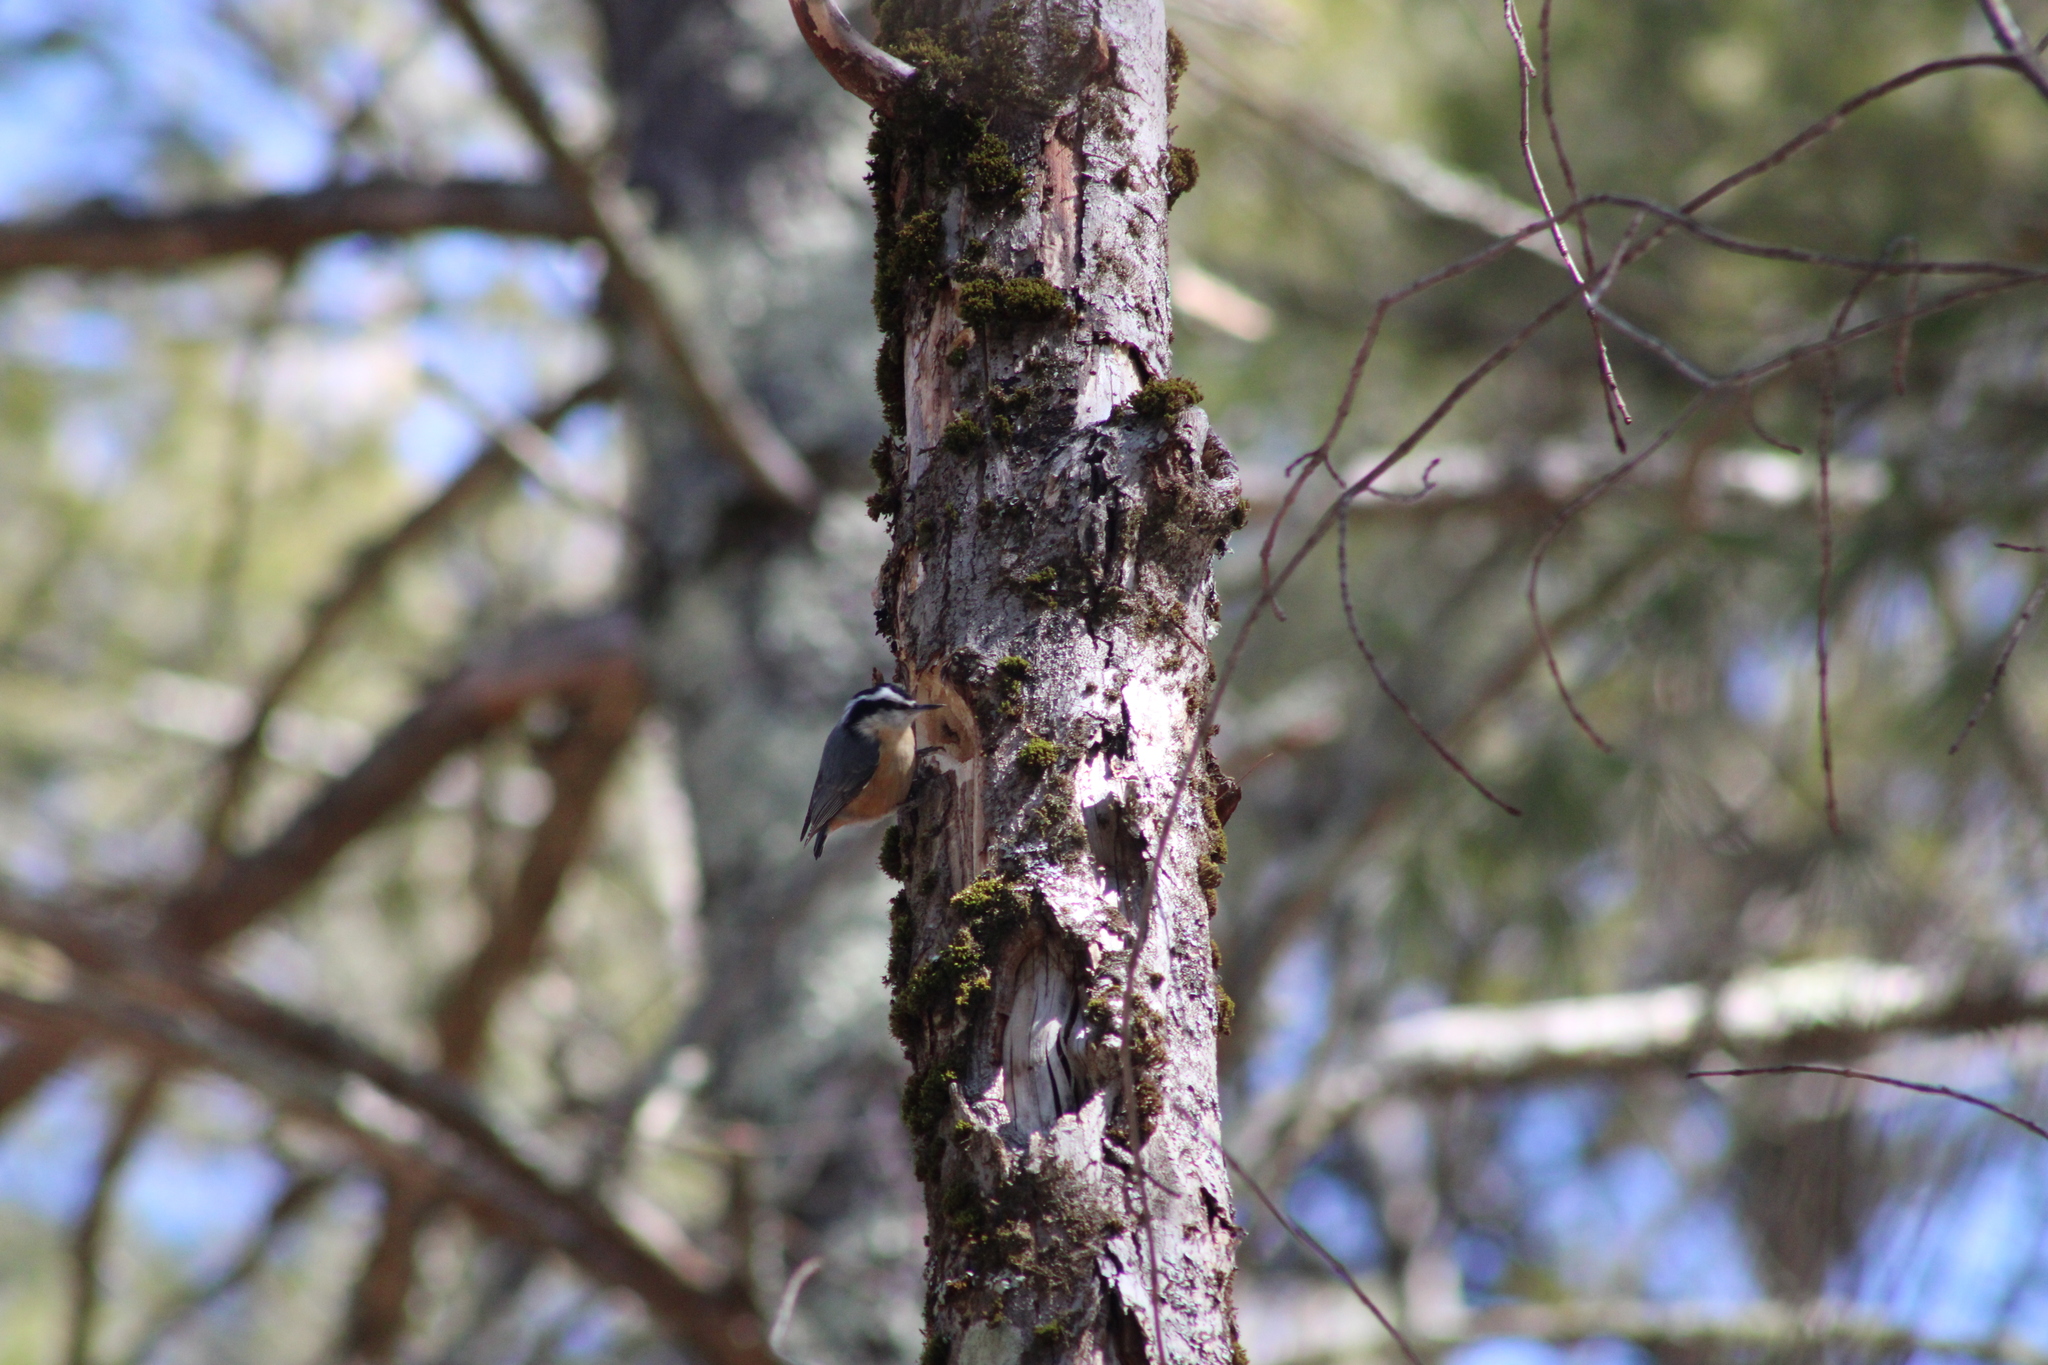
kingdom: Animalia
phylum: Chordata
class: Aves
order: Passeriformes
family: Sittidae
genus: Sitta
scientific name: Sitta canadensis
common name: Red-breasted nuthatch
